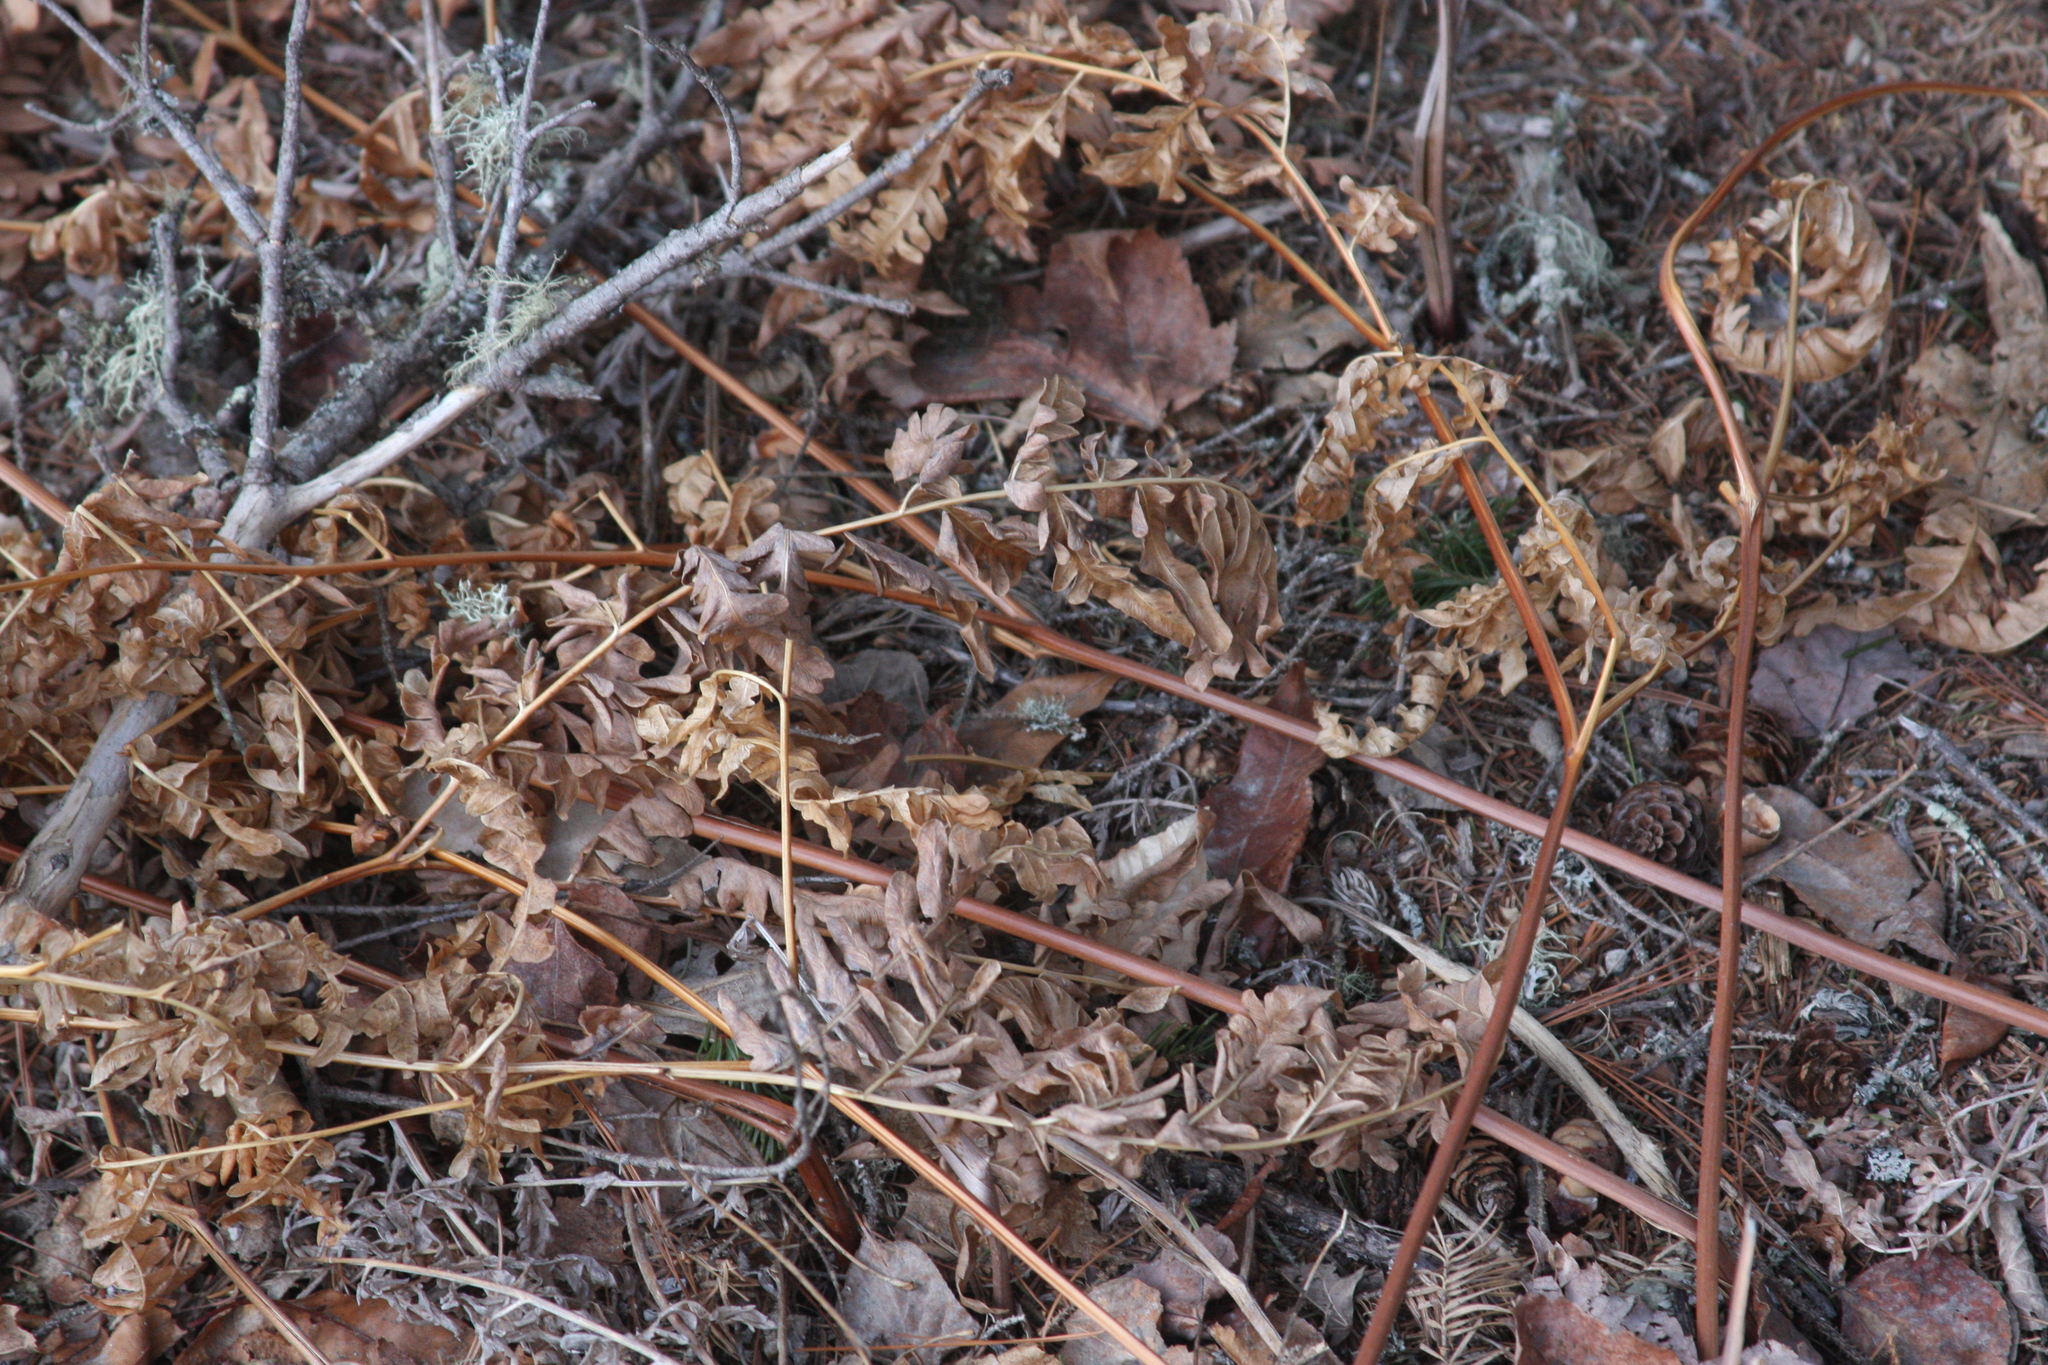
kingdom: Plantae
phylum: Tracheophyta
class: Polypodiopsida
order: Polypodiales
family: Dennstaedtiaceae
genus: Pteridium
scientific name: Pteridium aquilinum
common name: Bracken
